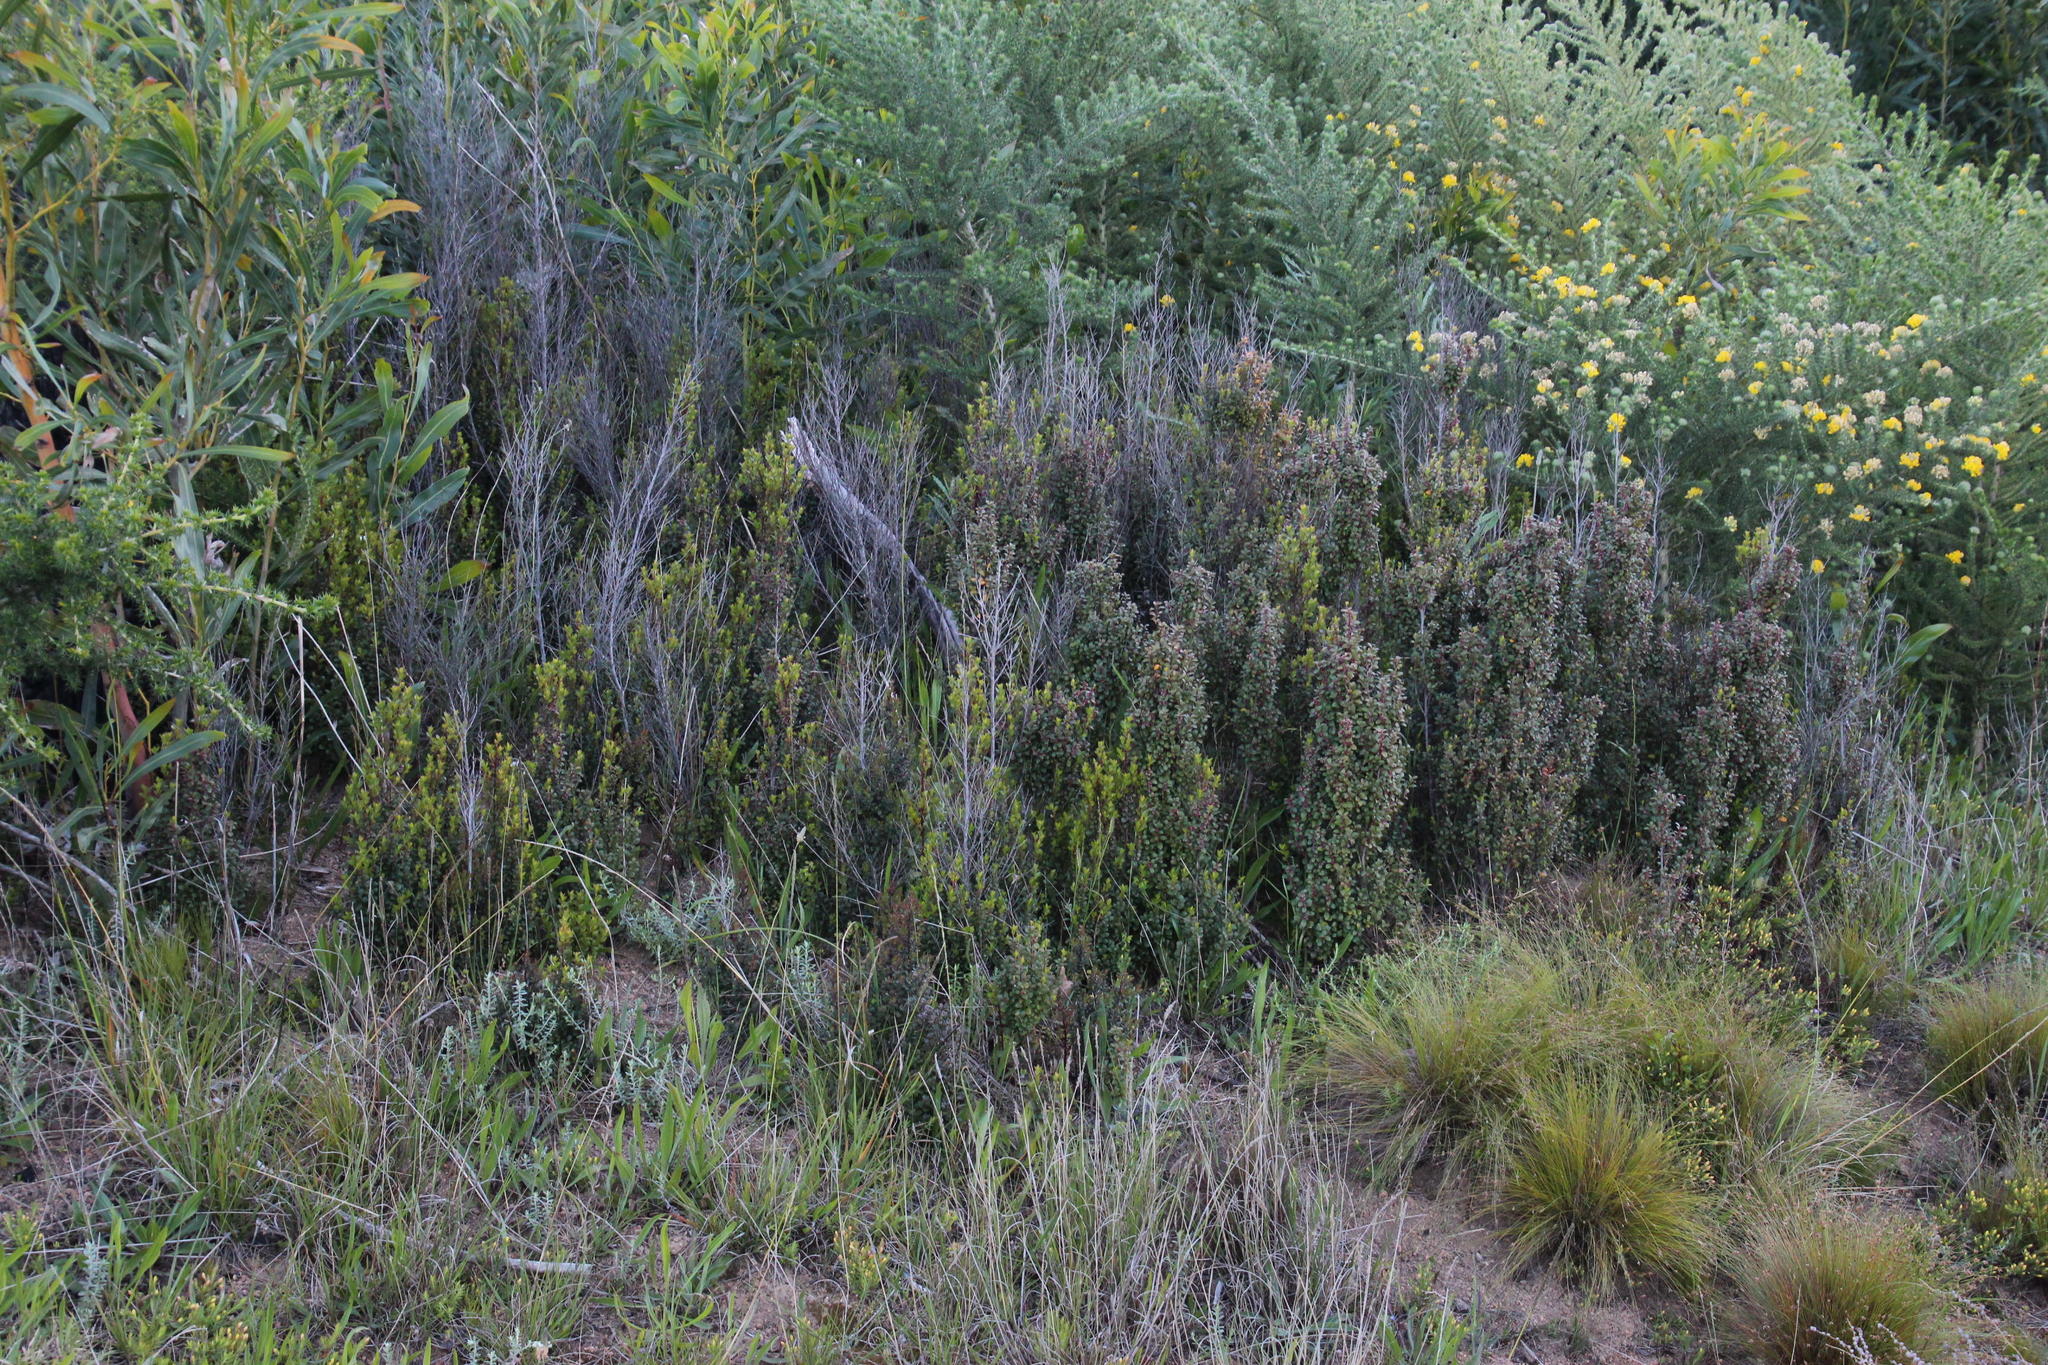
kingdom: Plantae
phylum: Tracheophyta
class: Magnoliopsida
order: Ericales
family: Primulaceae
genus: Myrsine
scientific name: Myrsine africana
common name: African-boxwood
